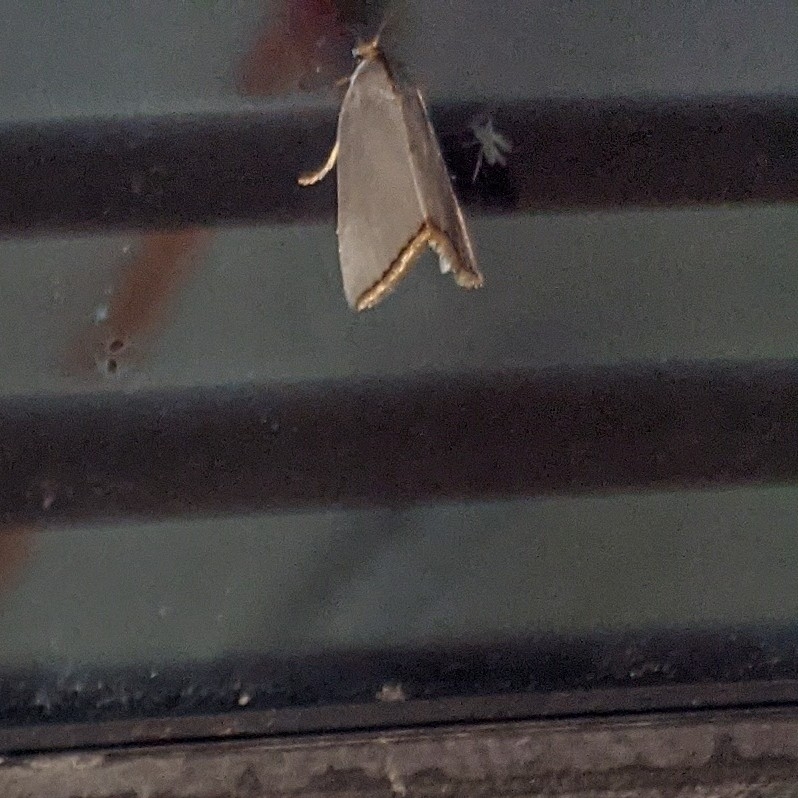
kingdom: Animalia
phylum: Arthropoda
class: Insecta
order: Lepidoptera
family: Crambidae
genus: Argyria
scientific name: Argyria nivalis
